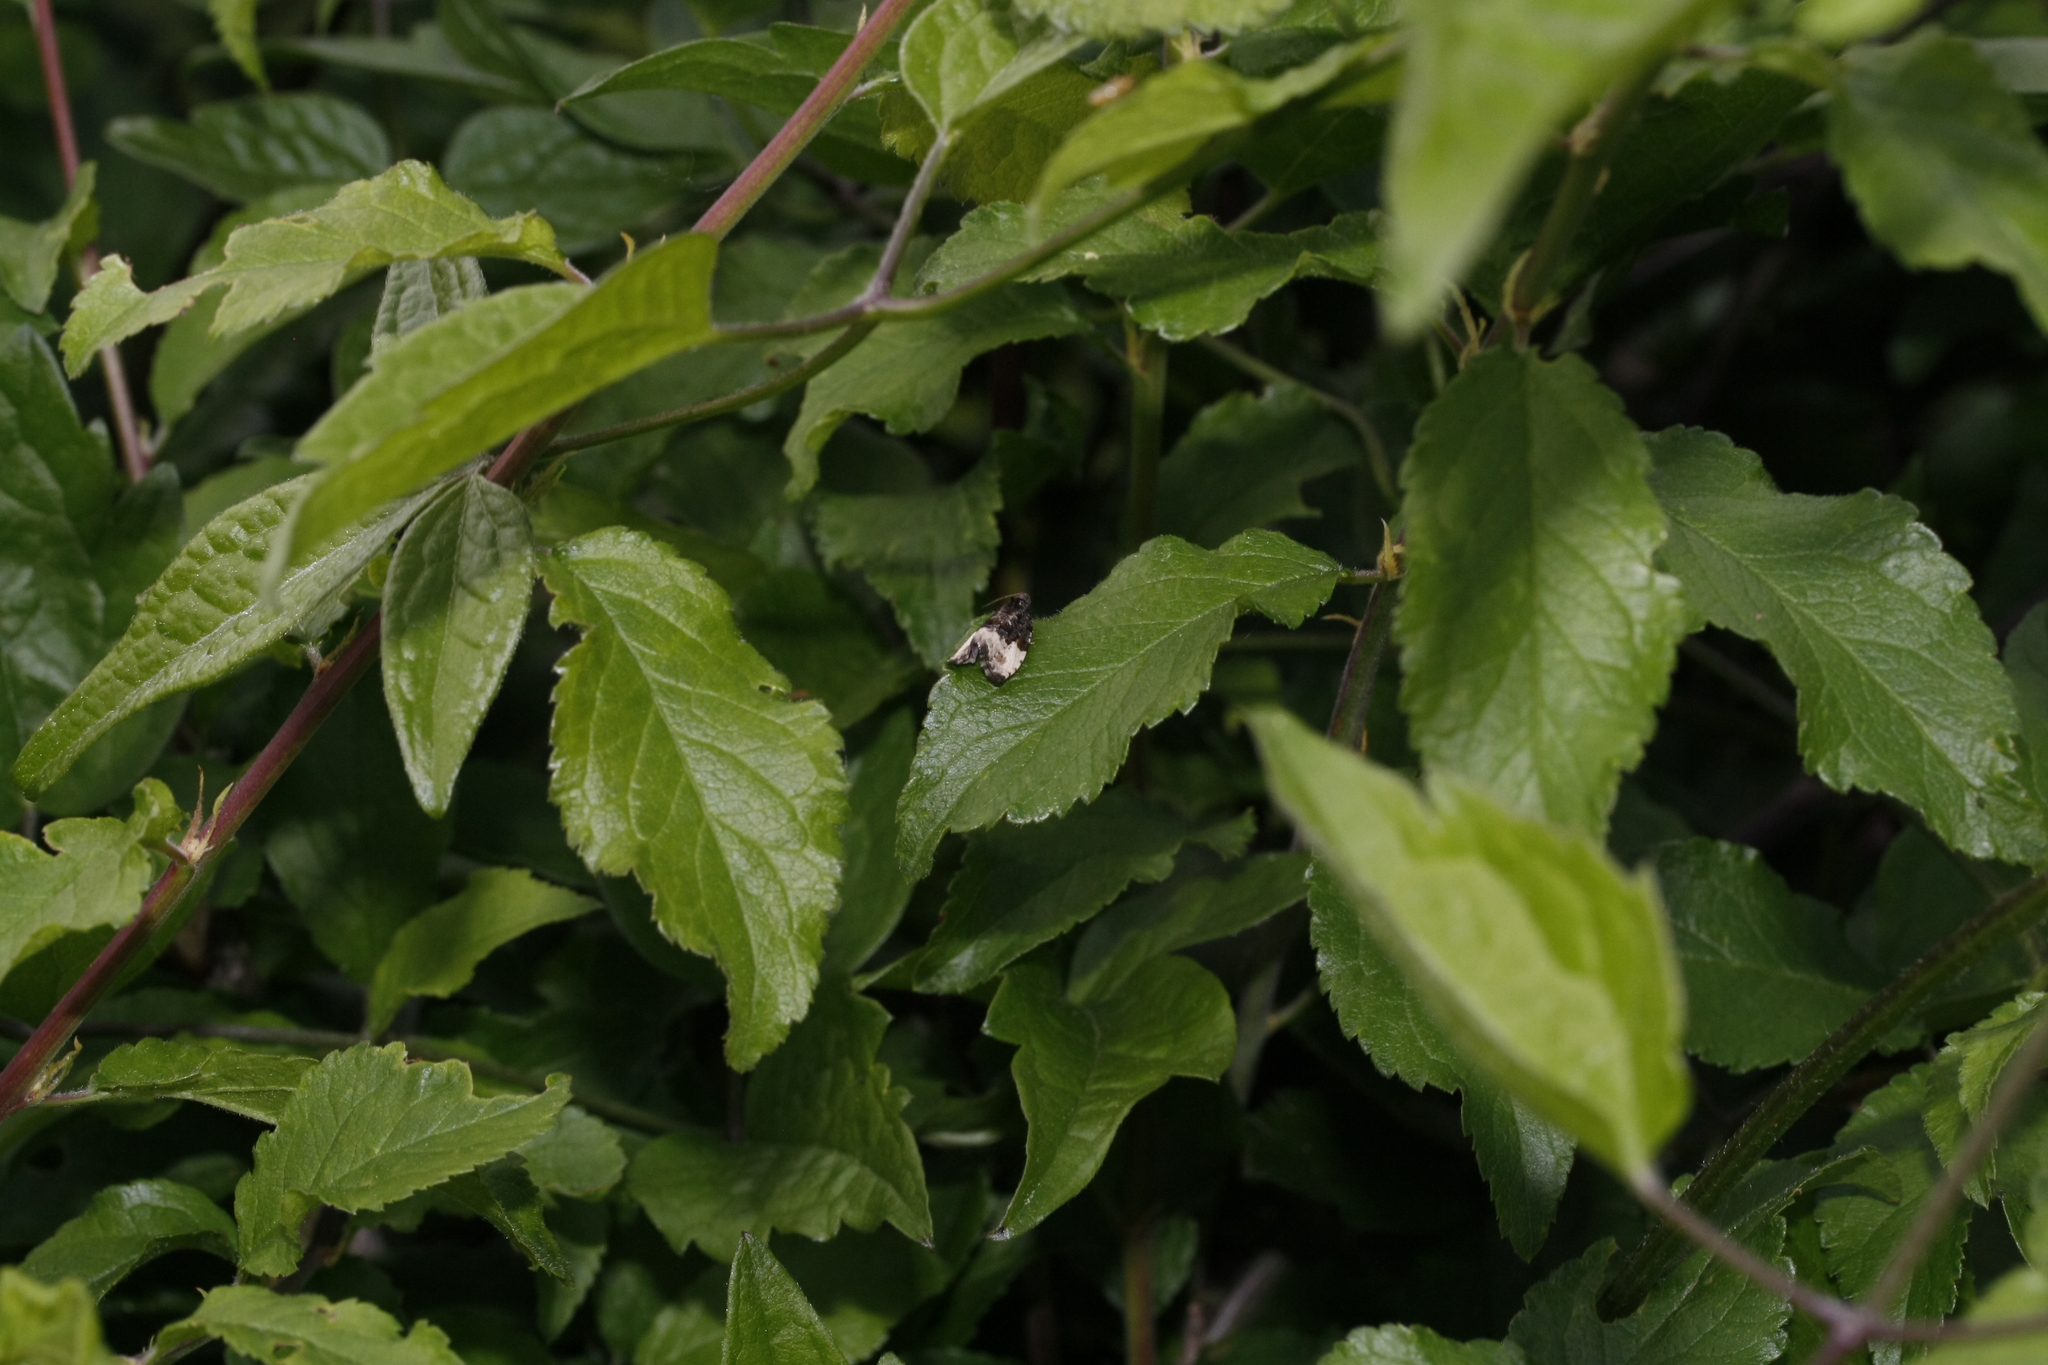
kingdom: Animalia
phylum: Arthropoda
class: Insecta
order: Lepidoptera
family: Tortricidae
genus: Hedya
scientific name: Hedya pruniana
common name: Plum tortrix
